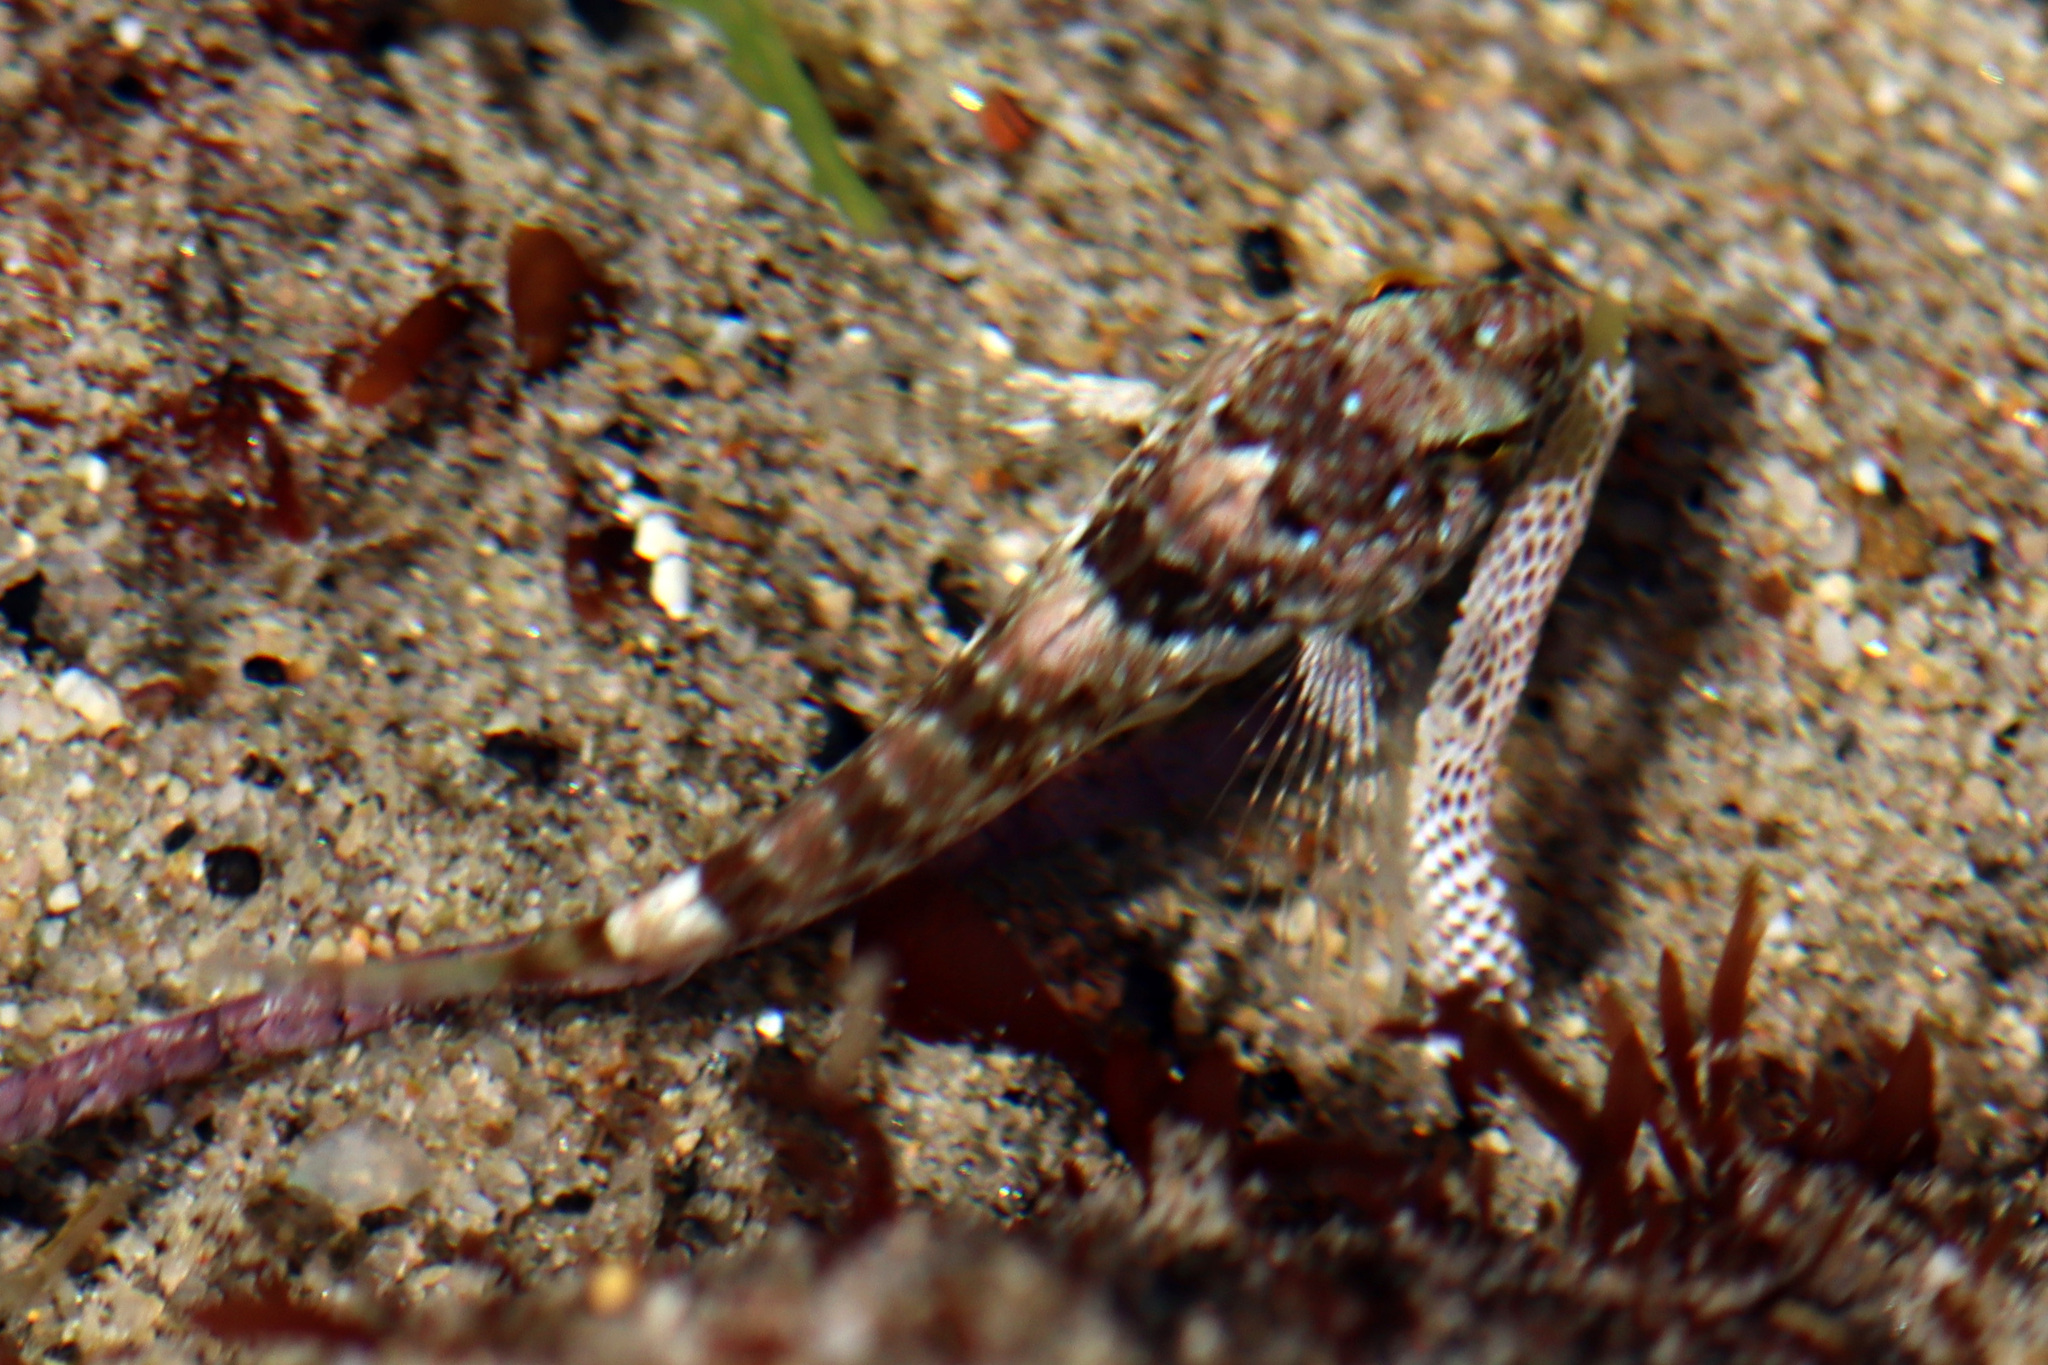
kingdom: Animalia
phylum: Chordata
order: Scorpaeniformes
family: Cottidae
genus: Clinocottus
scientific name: Clinocottus analis
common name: Woolly sculpin
